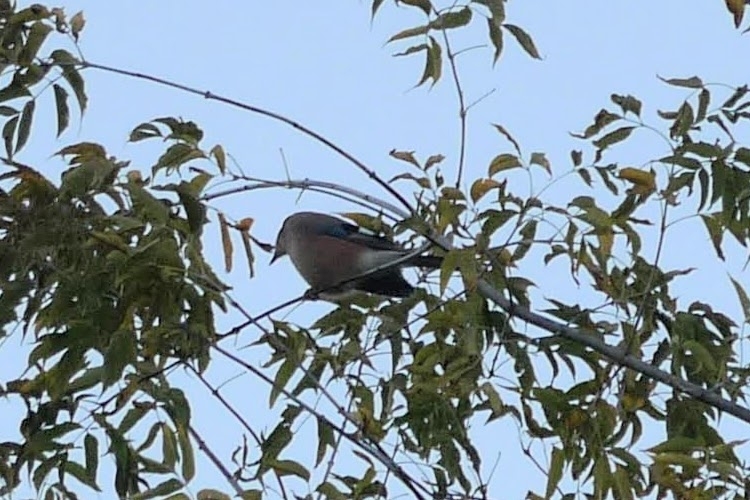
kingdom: Animalia
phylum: Chordata
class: Aves
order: Passeriformes
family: Corvidae
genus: Garrulus
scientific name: Garrulus glandarius
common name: Eurasian jay
